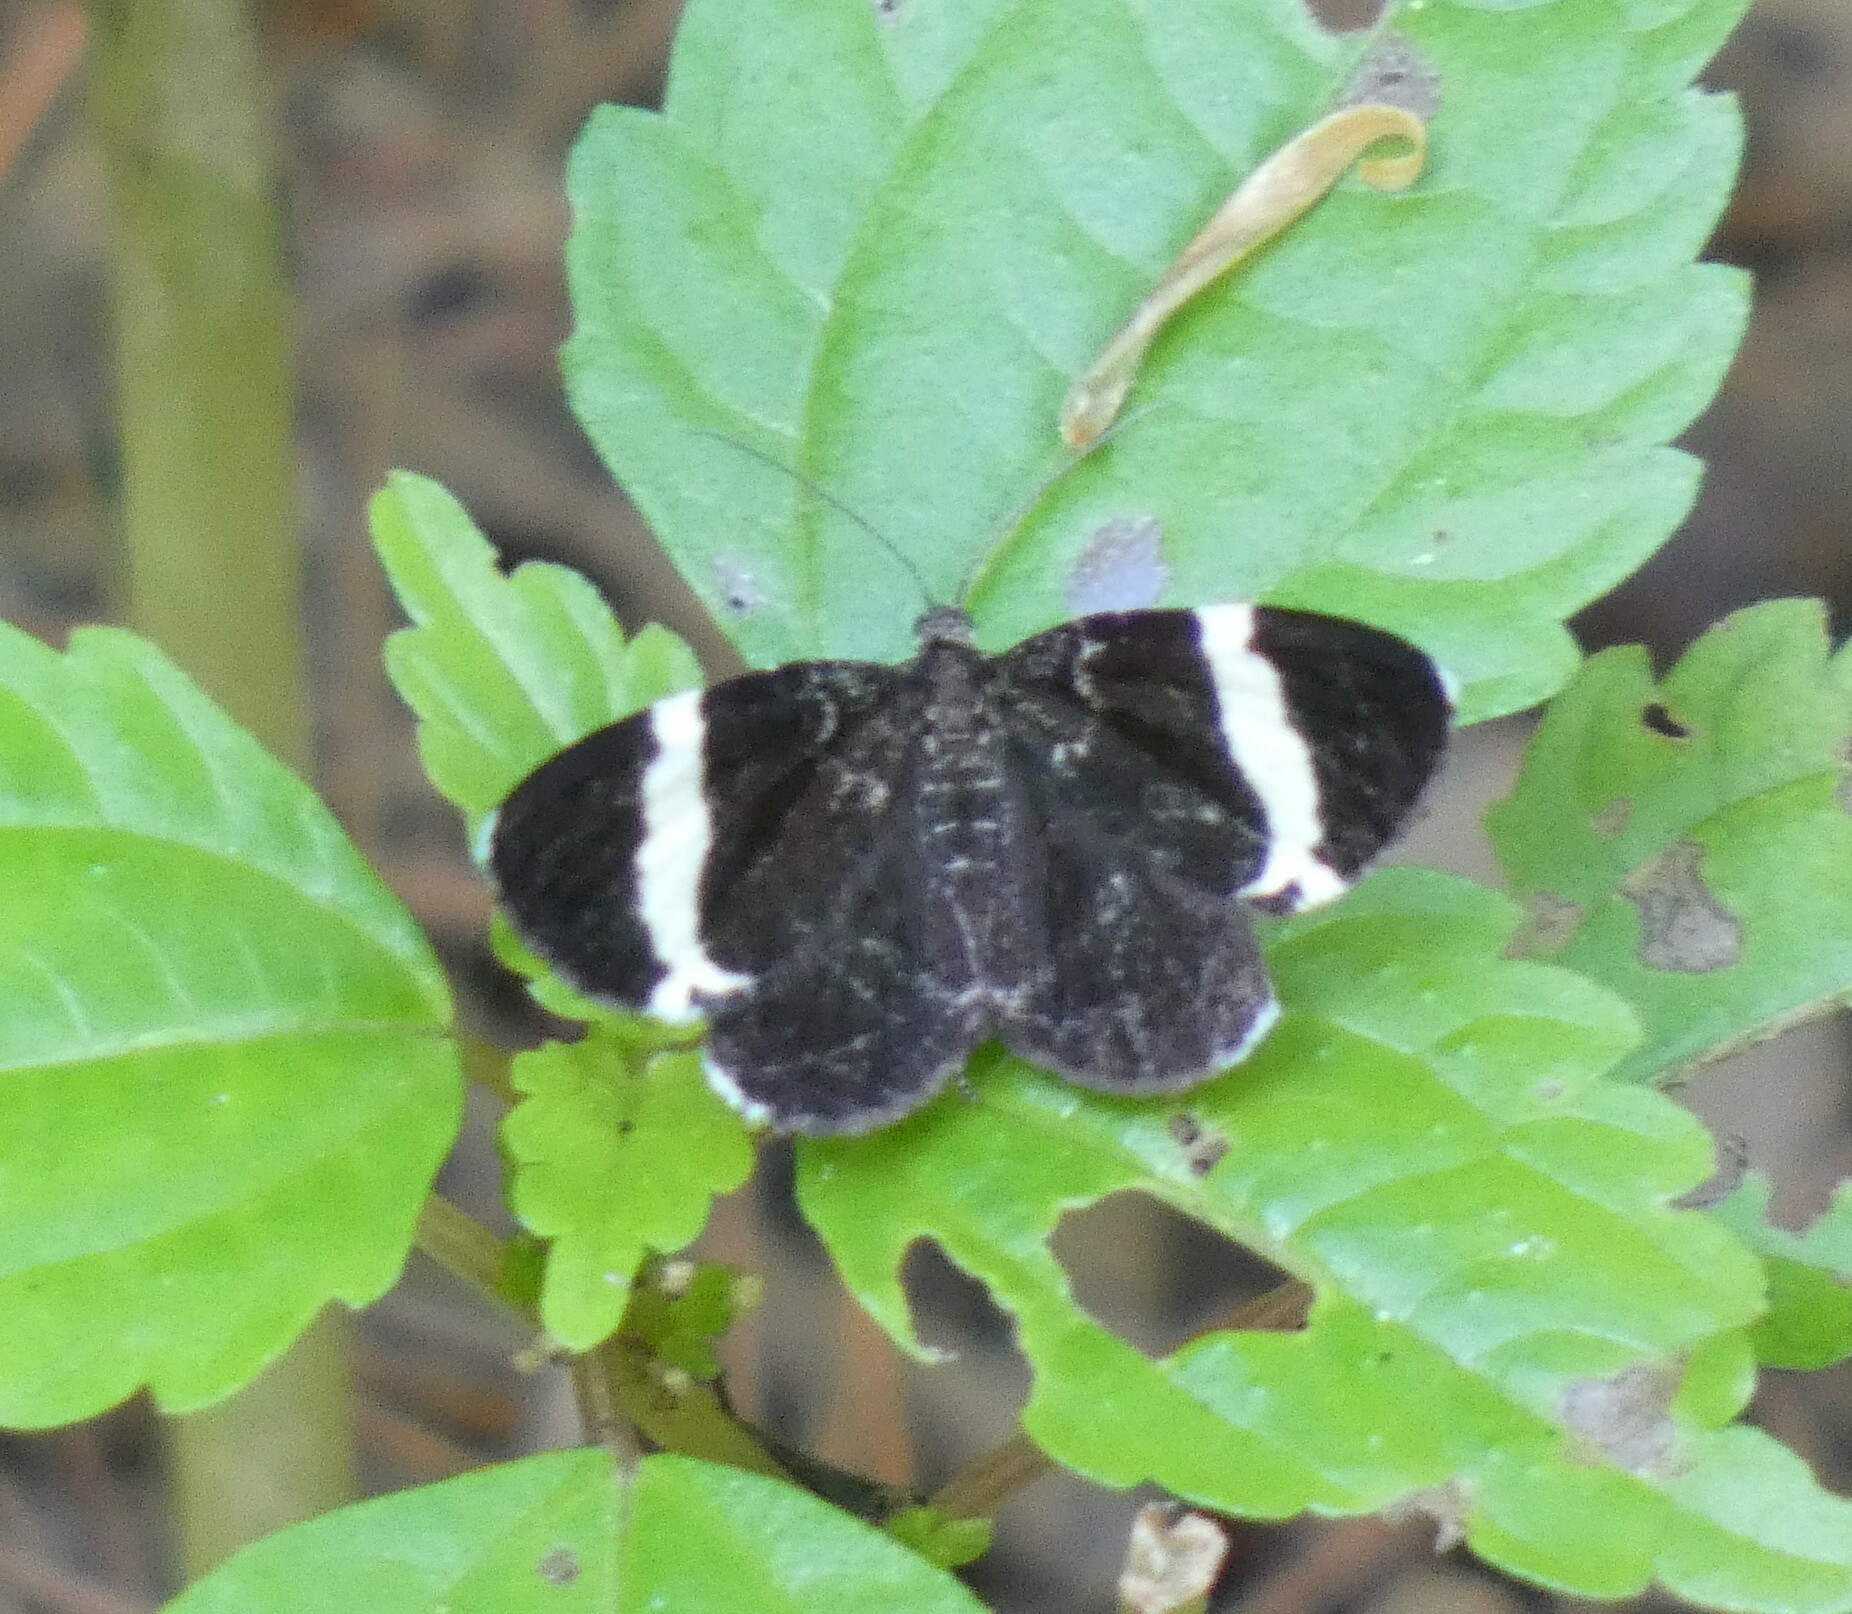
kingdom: Animalia
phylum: Arthropoda
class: Insecta
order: Lepidoptera
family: Geometridae
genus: Trichodezia
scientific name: Trichodezia albovittata
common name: White striped black
